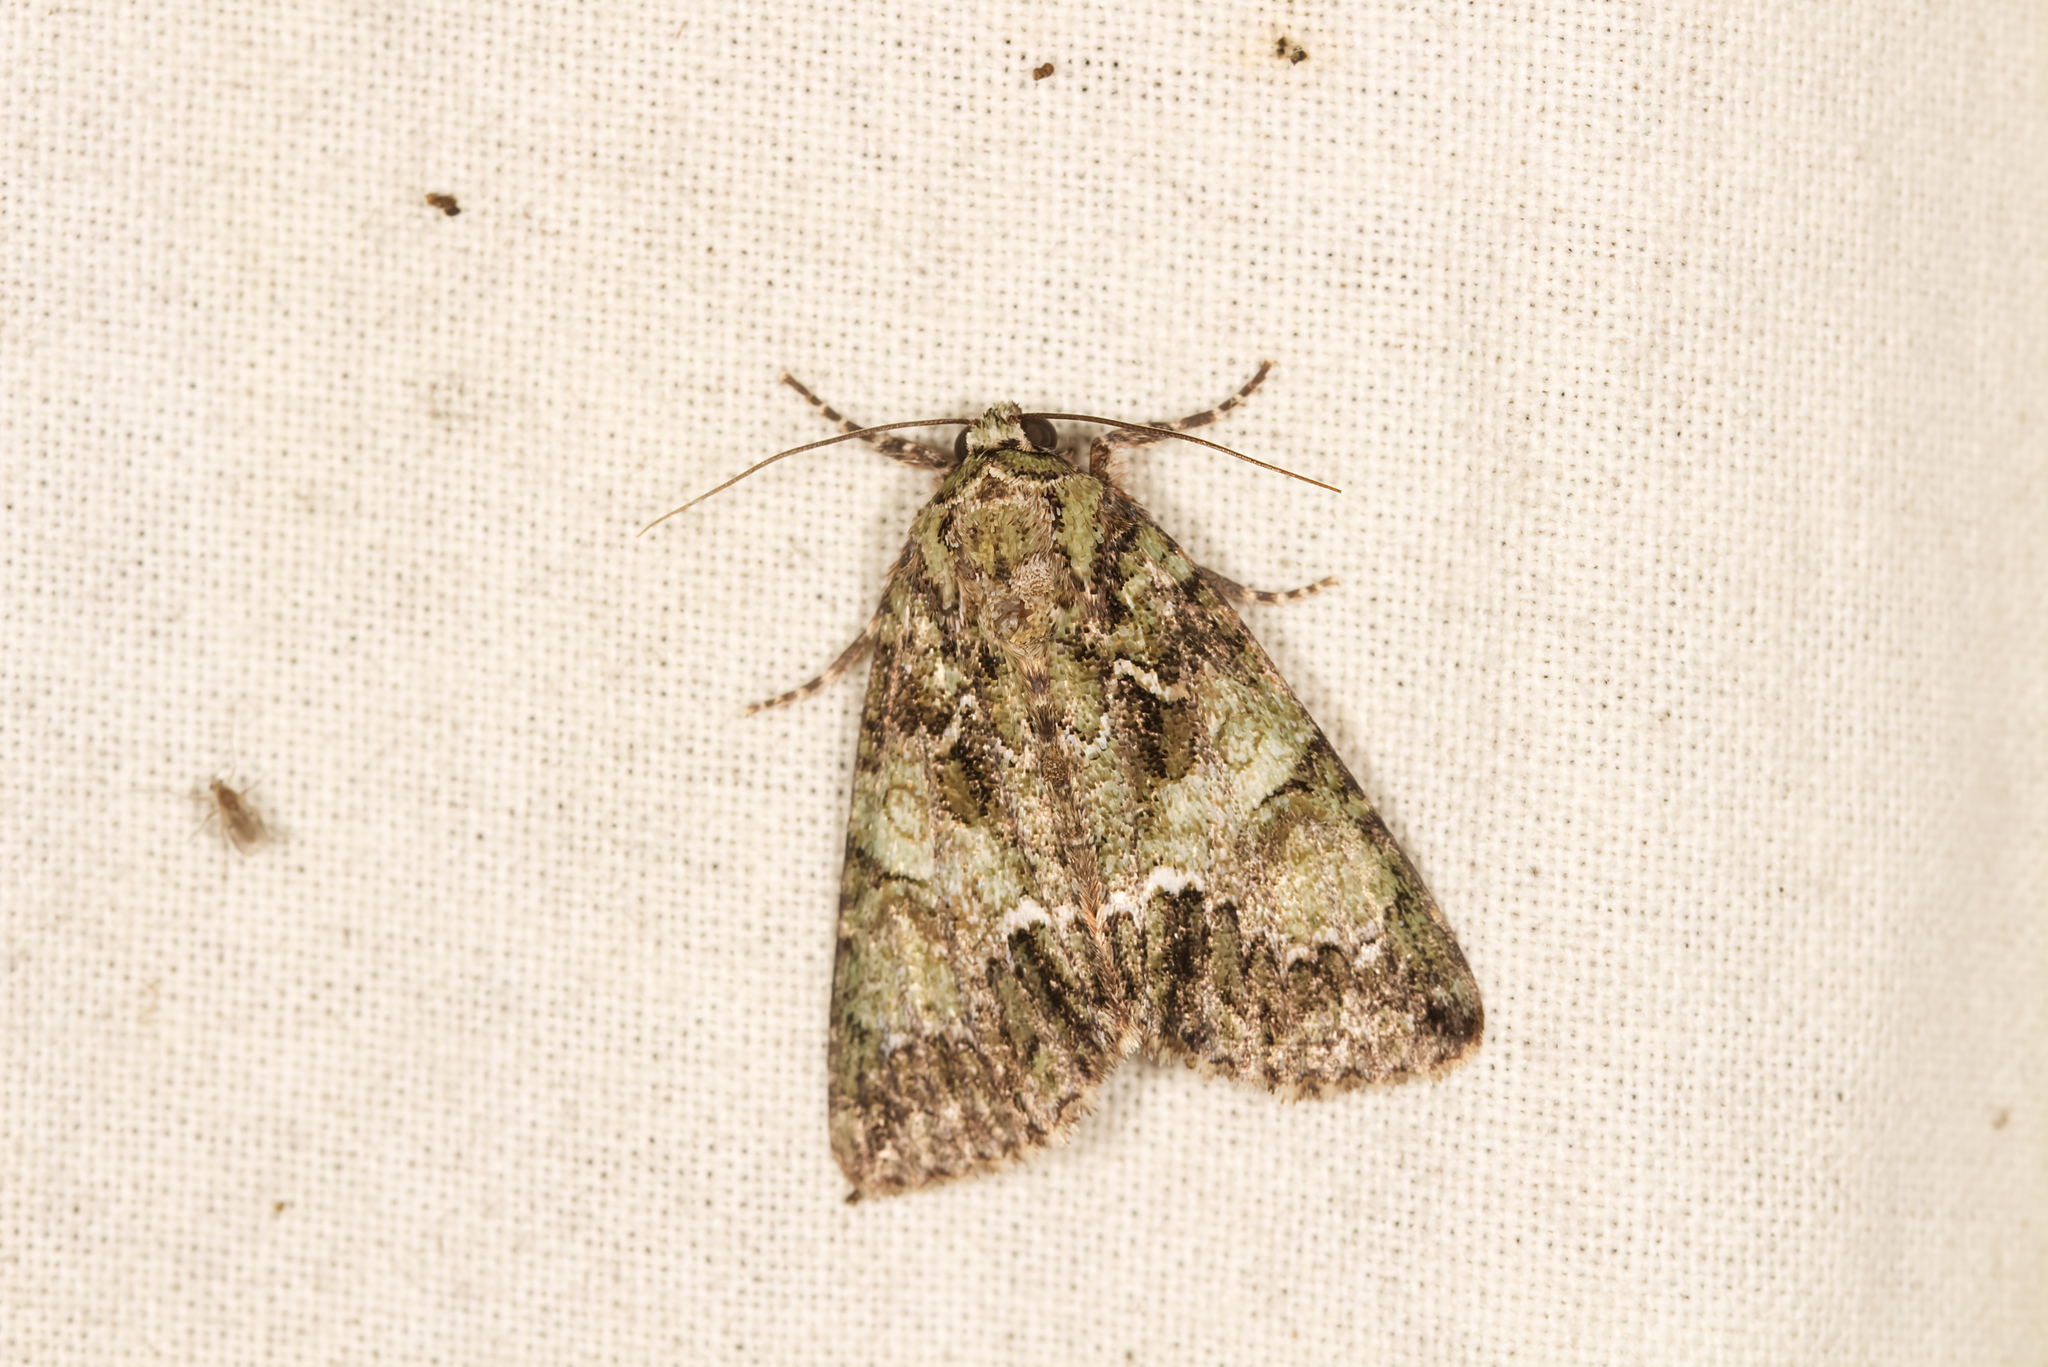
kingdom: Animalia
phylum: Arthropoda
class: Insecta
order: Lepidoptera
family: Noctuidae
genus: Polyphaenis
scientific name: Polyphaenis sericata
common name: Guernsey underwing
